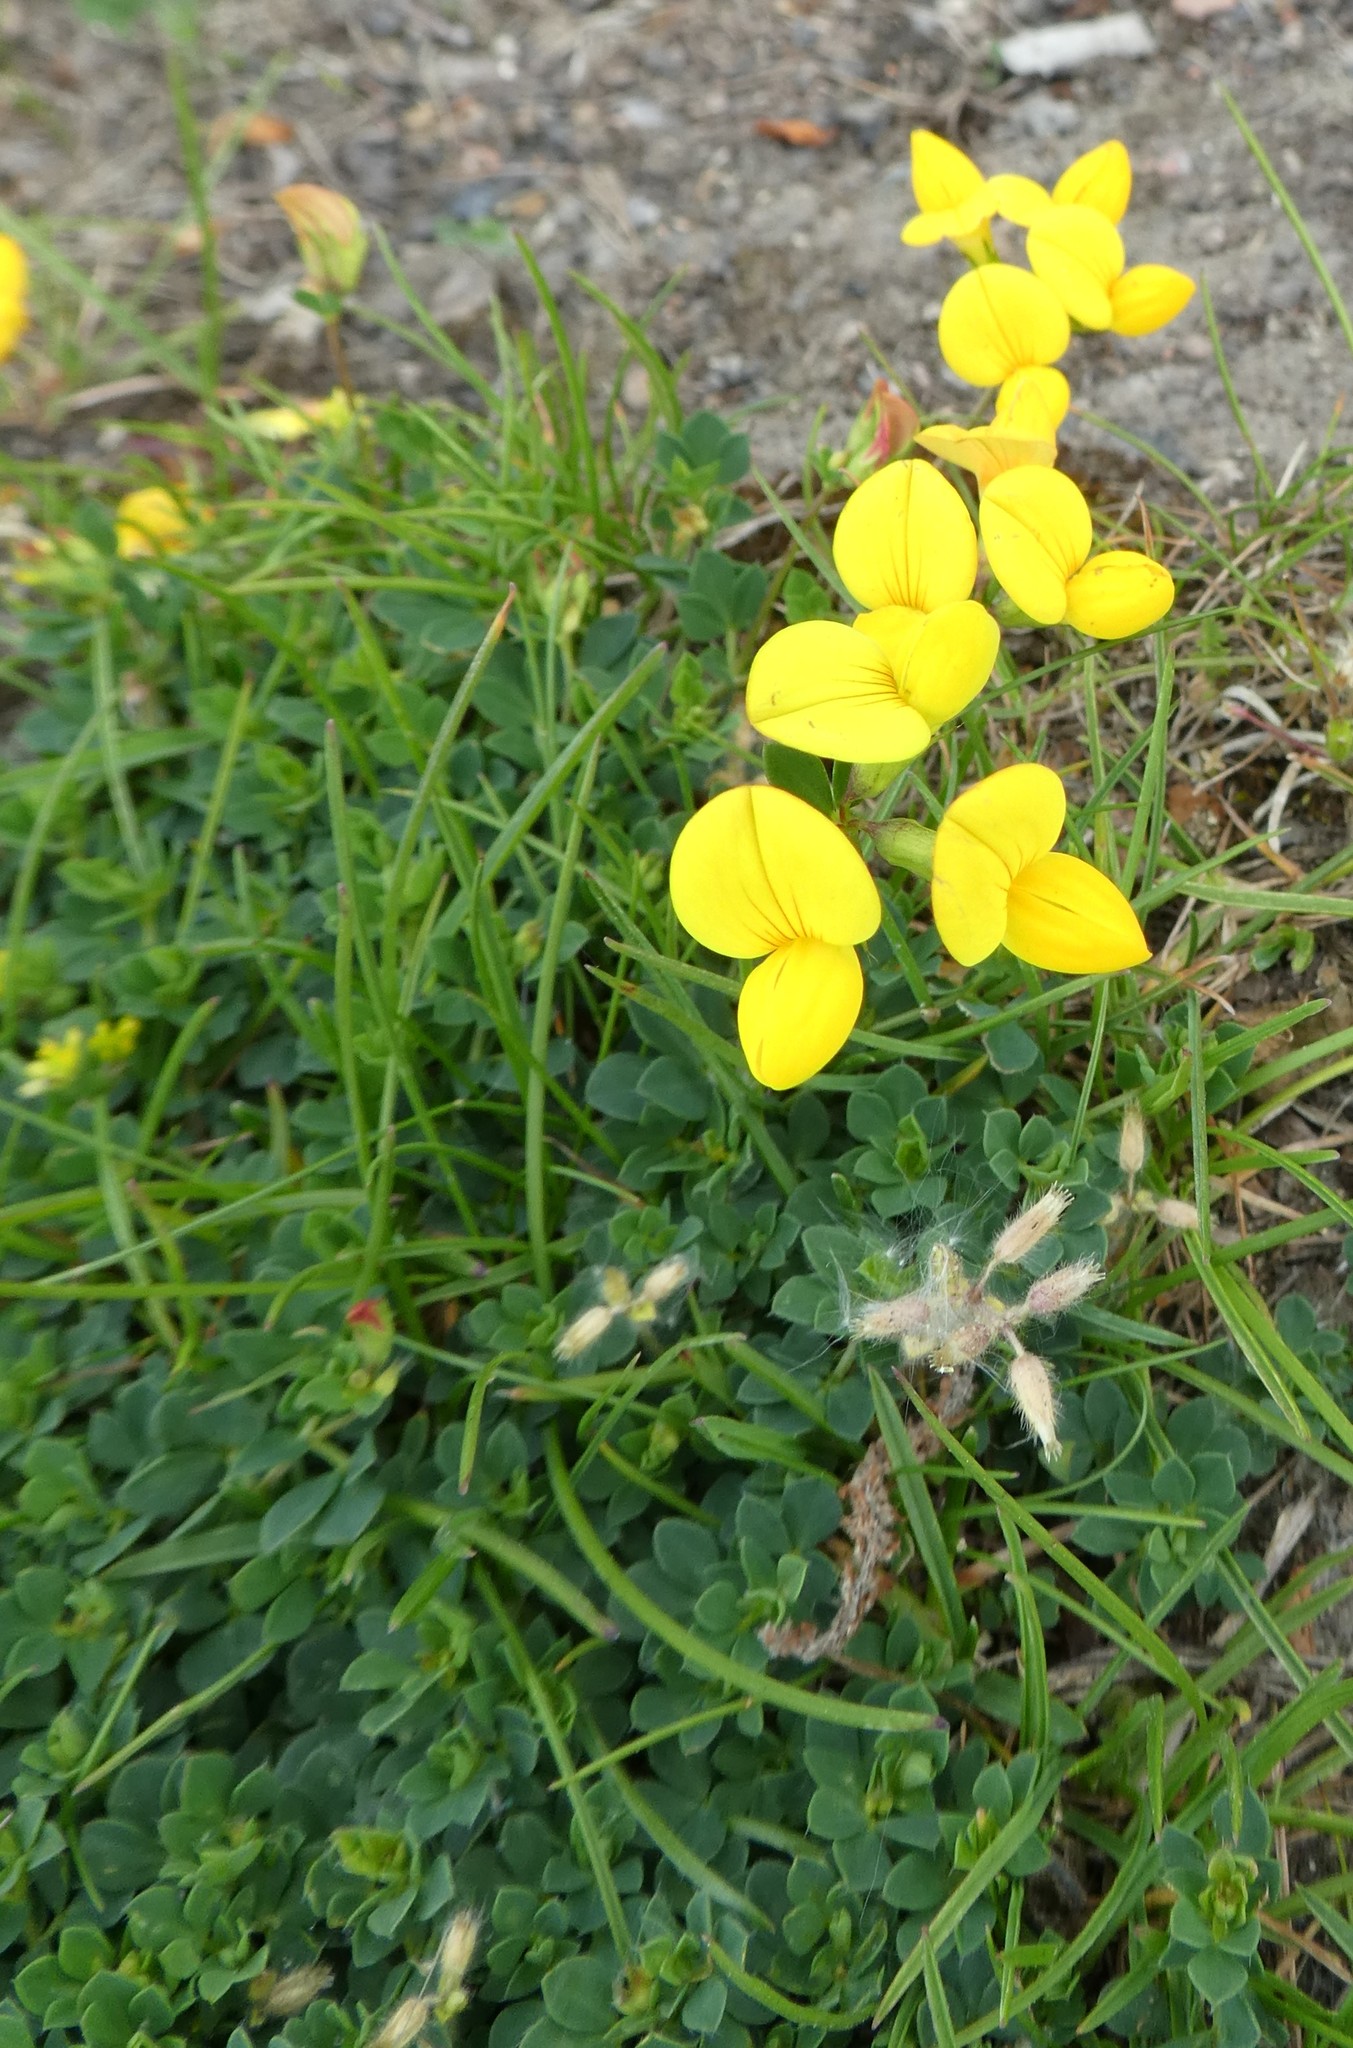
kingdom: Plantae
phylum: Tracheophyta
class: Magnoliopsida
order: Fabales
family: Fabaceae
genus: Lotus
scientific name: Lotus corniculatus
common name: Common bird's-foot-trefoil
